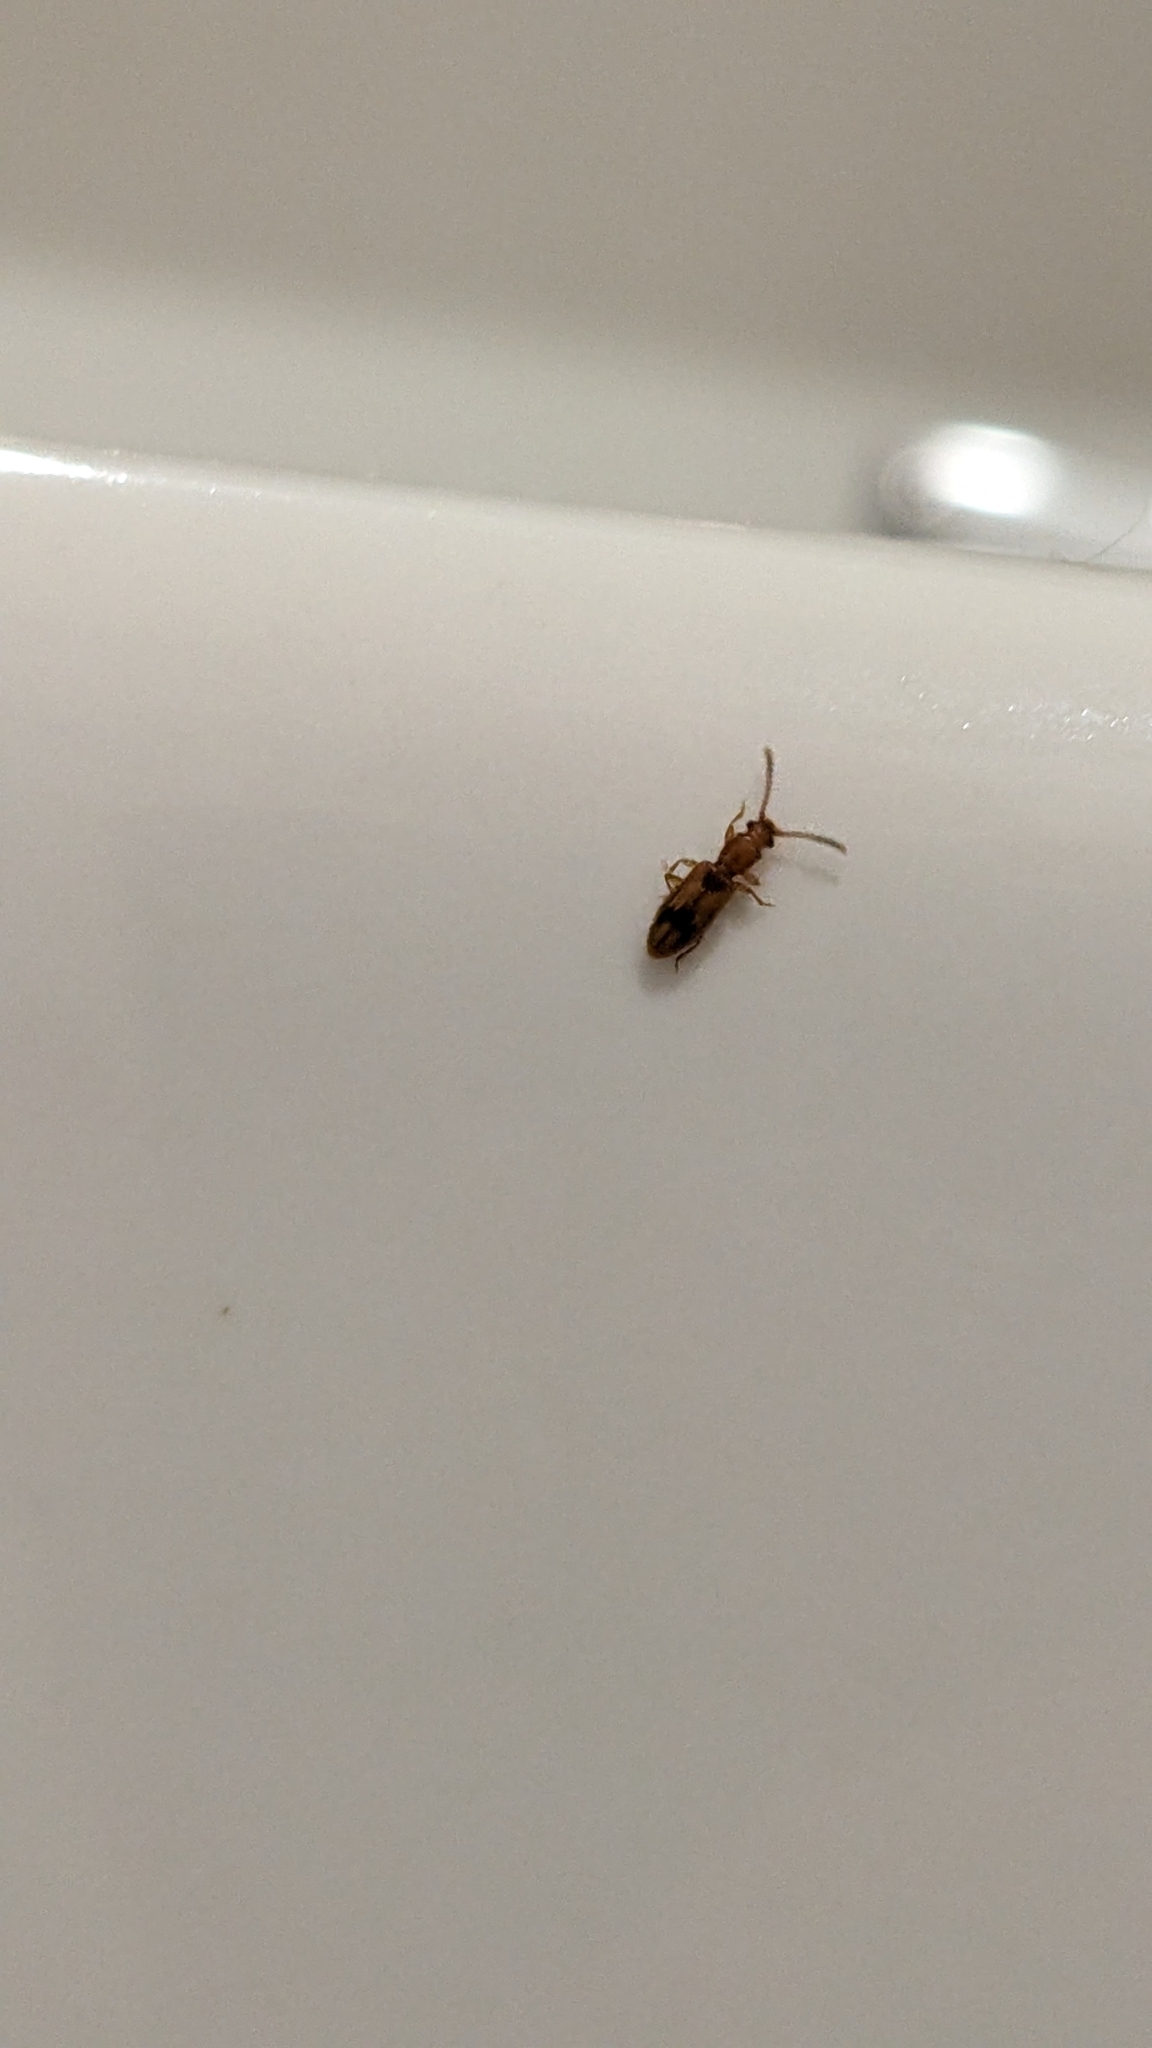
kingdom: Animalia
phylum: Arthropoda
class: Insecta
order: Coleoptera
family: Silvanidae
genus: Cryptamorpha
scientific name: Cryptamorpha desjardinsi
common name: Cryptamorpha
